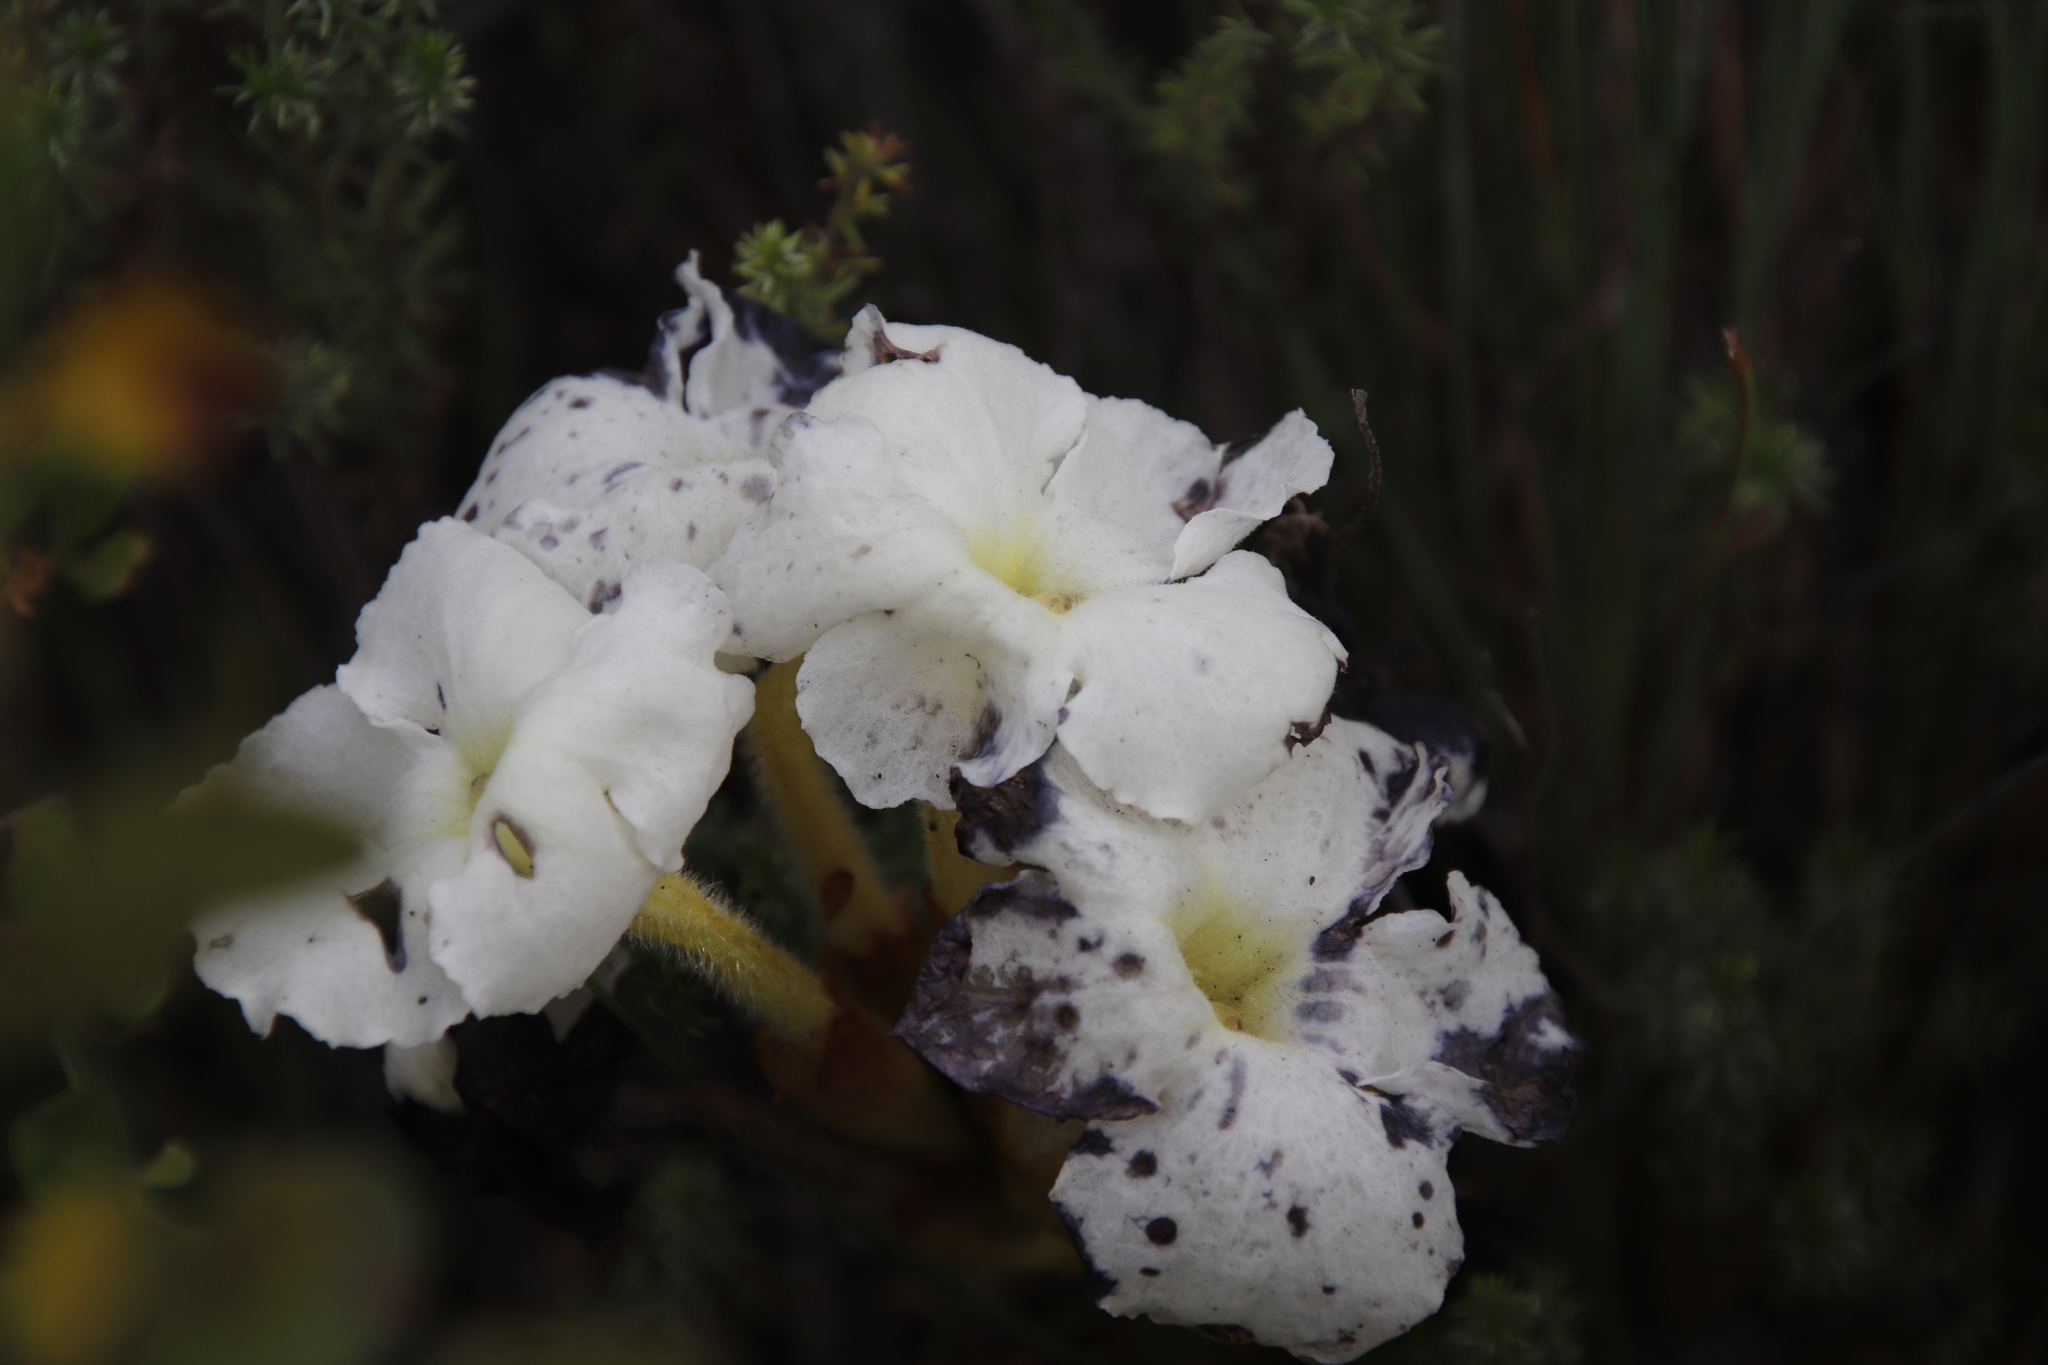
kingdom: Plantae
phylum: Tracheophyta
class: Magnoliopsida
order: Lamiales
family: Orobanchaceae
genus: Harveya
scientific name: Harveya speciosa
